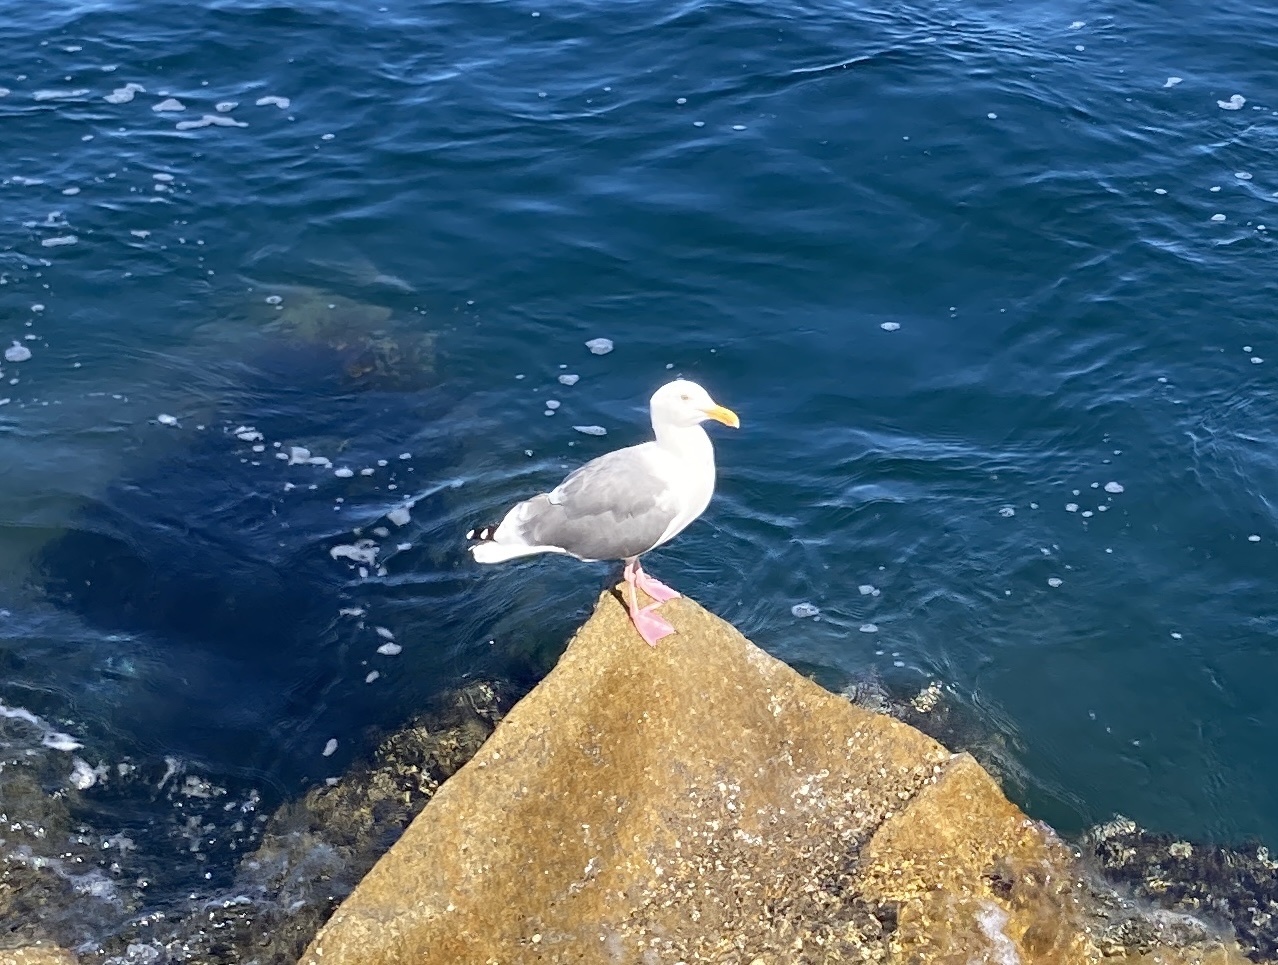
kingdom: Animalia
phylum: Chordata
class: Aves
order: Charadriiformes
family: Laridae
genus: Larus
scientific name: Larus occidentalis
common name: Western gull
